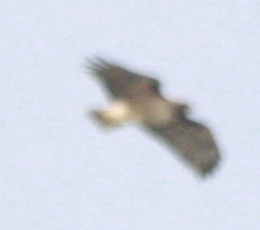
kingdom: Animalia
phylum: Chordata
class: Aves
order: Accipitriformes
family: Accipitridae
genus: Buteo
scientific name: Buteo jamaicensis
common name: Red-tailed hawk
